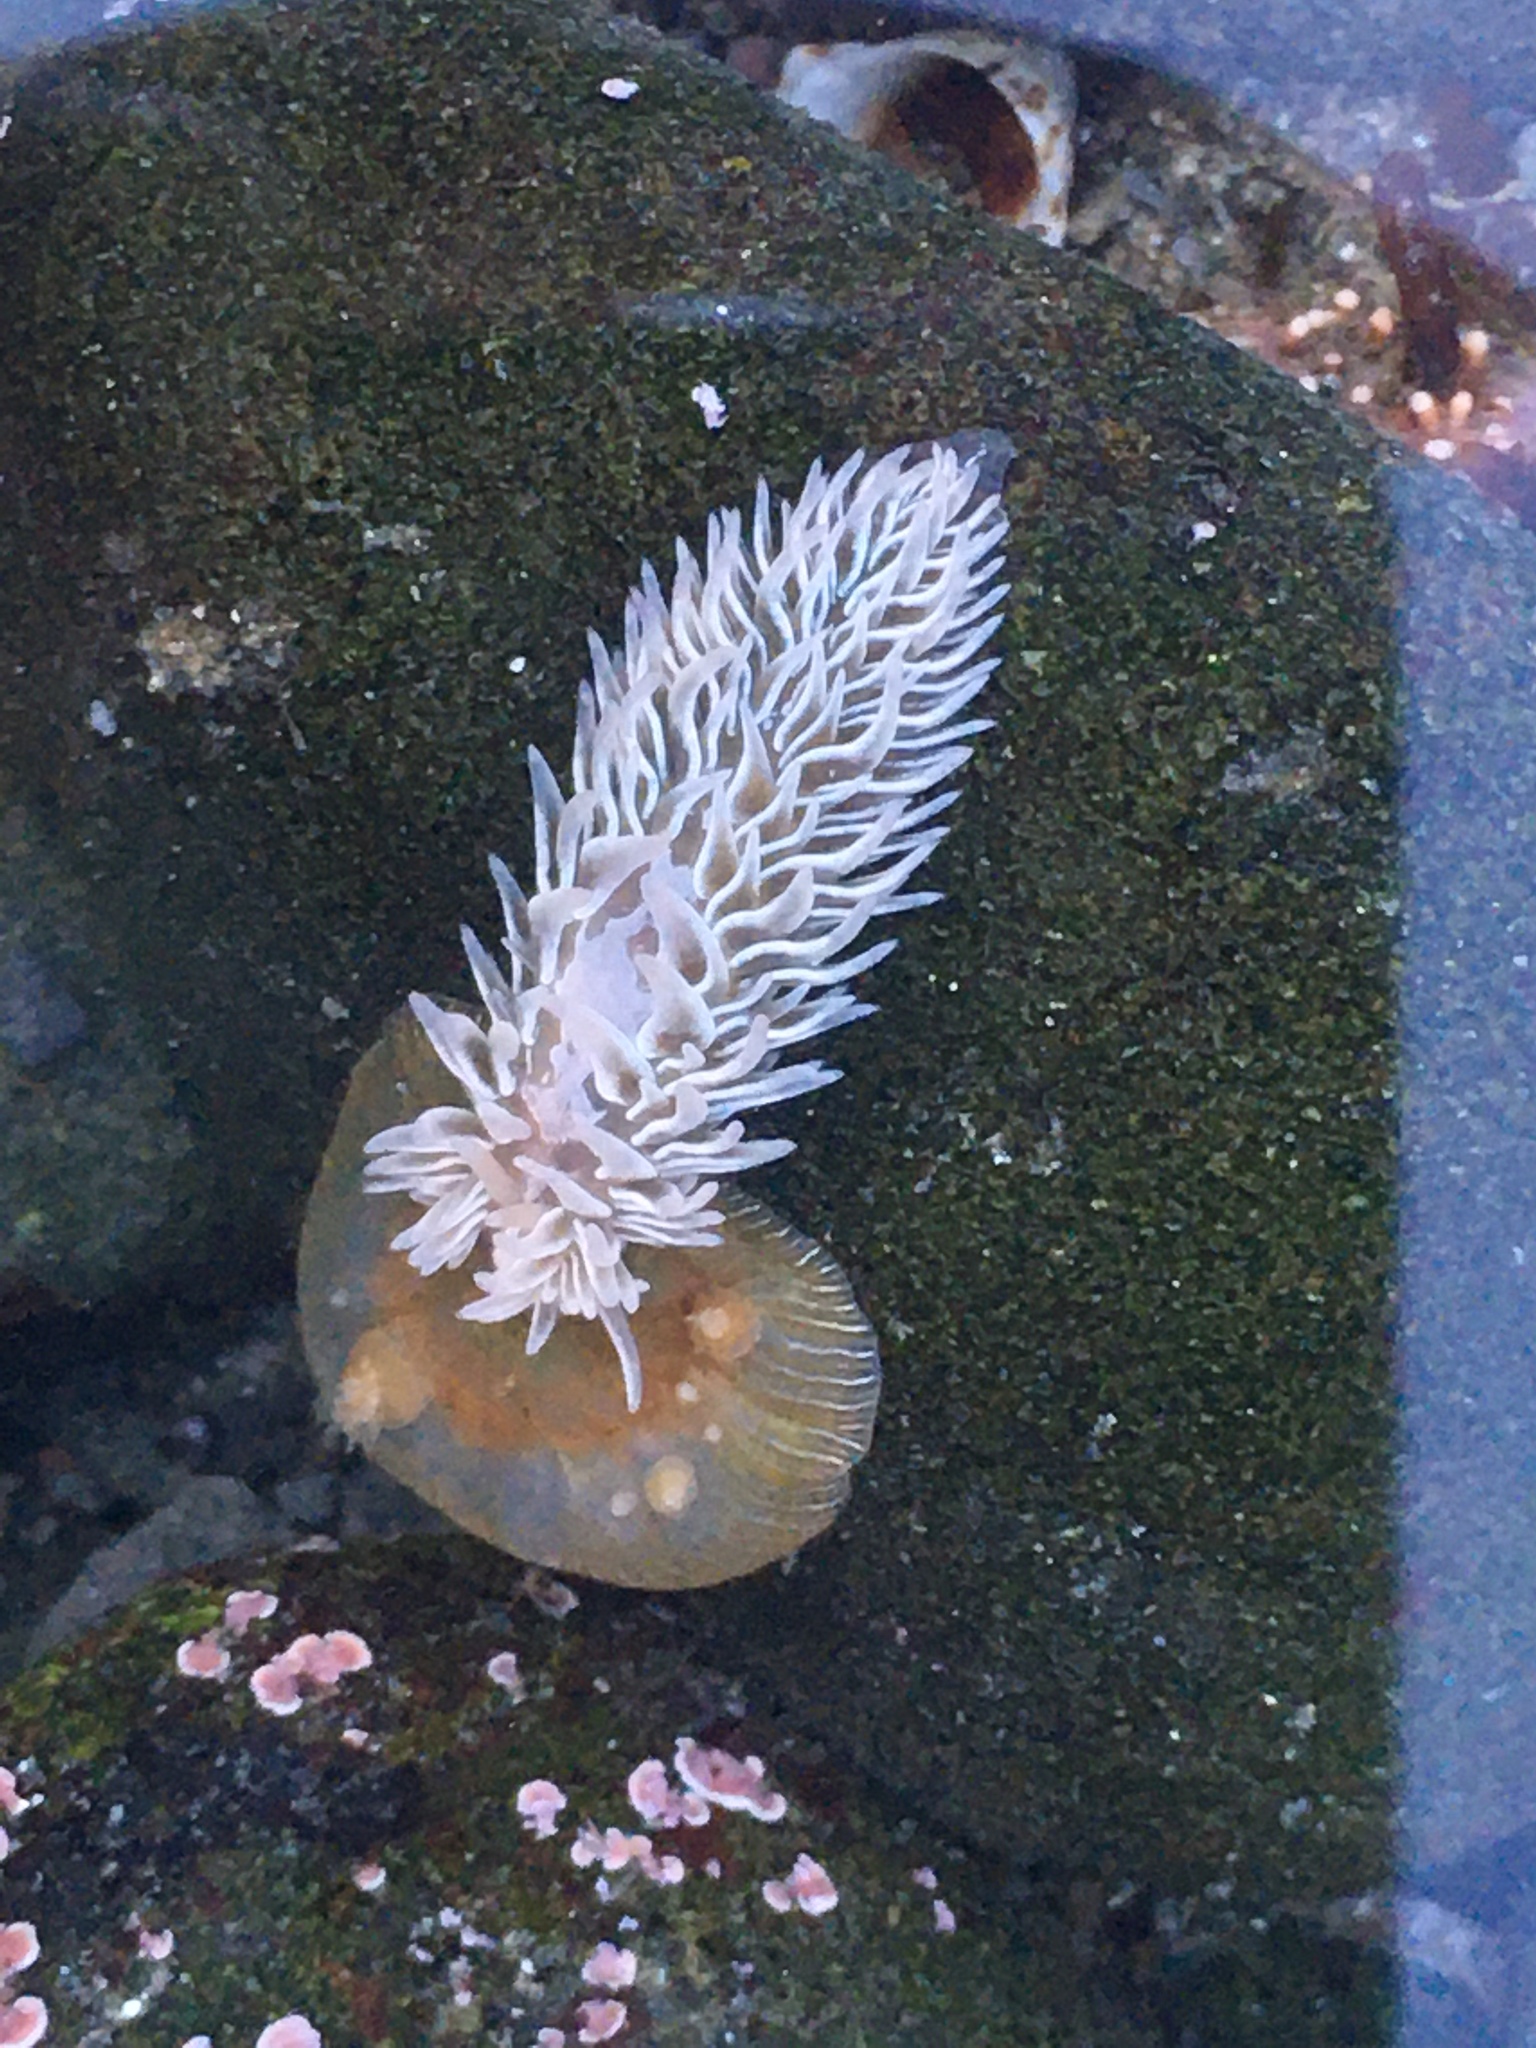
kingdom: Animalia
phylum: Mollusca
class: Gastropoda
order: Nudibranchia
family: Aeolidiidae
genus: Aeolidia
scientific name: Aeolidia loui
